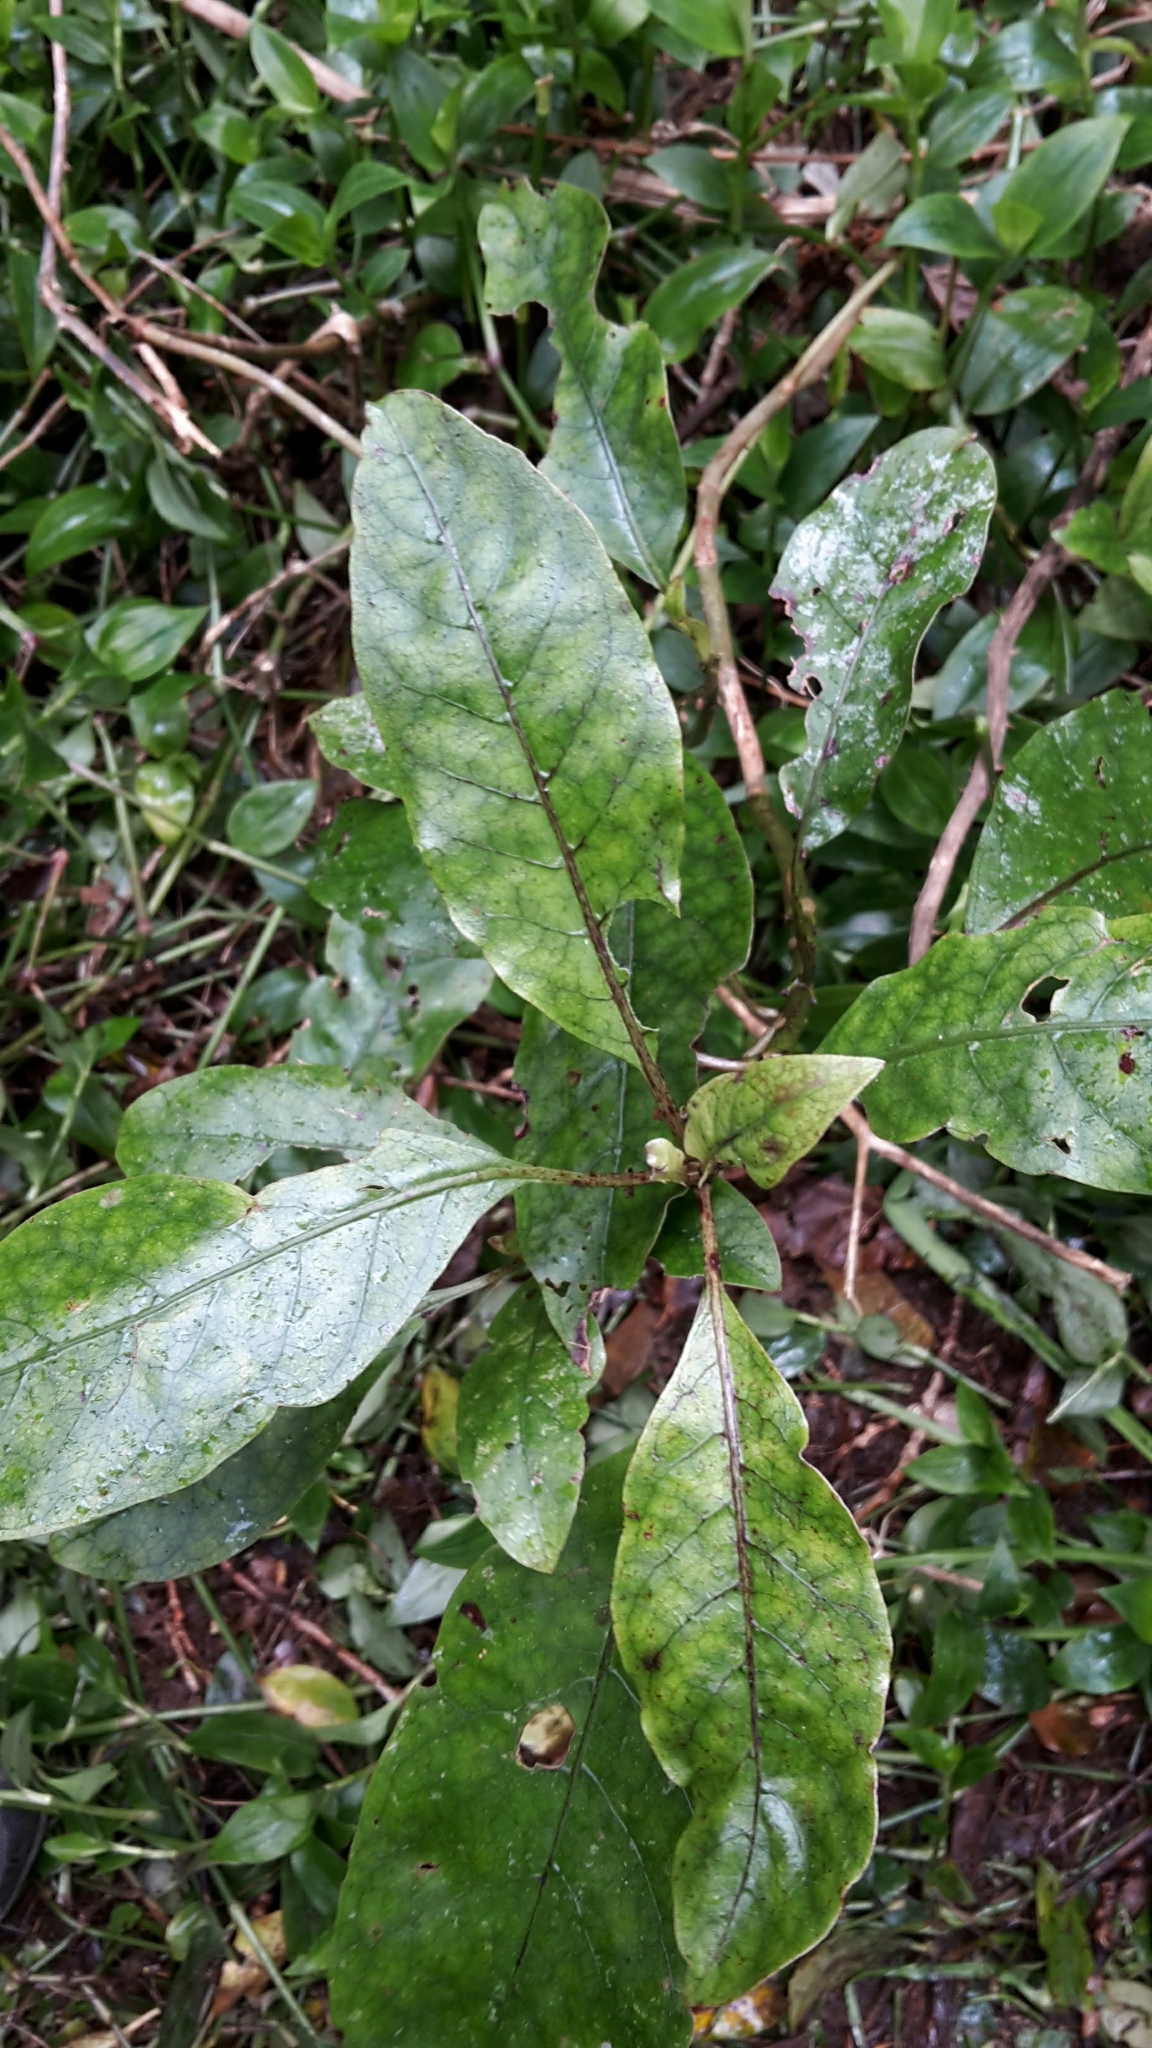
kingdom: Plantae
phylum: Tracheophyta
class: Magnoliopsida
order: Gentianales
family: Rubiaceae
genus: Coprosma
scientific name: Coprosma autumnalis
